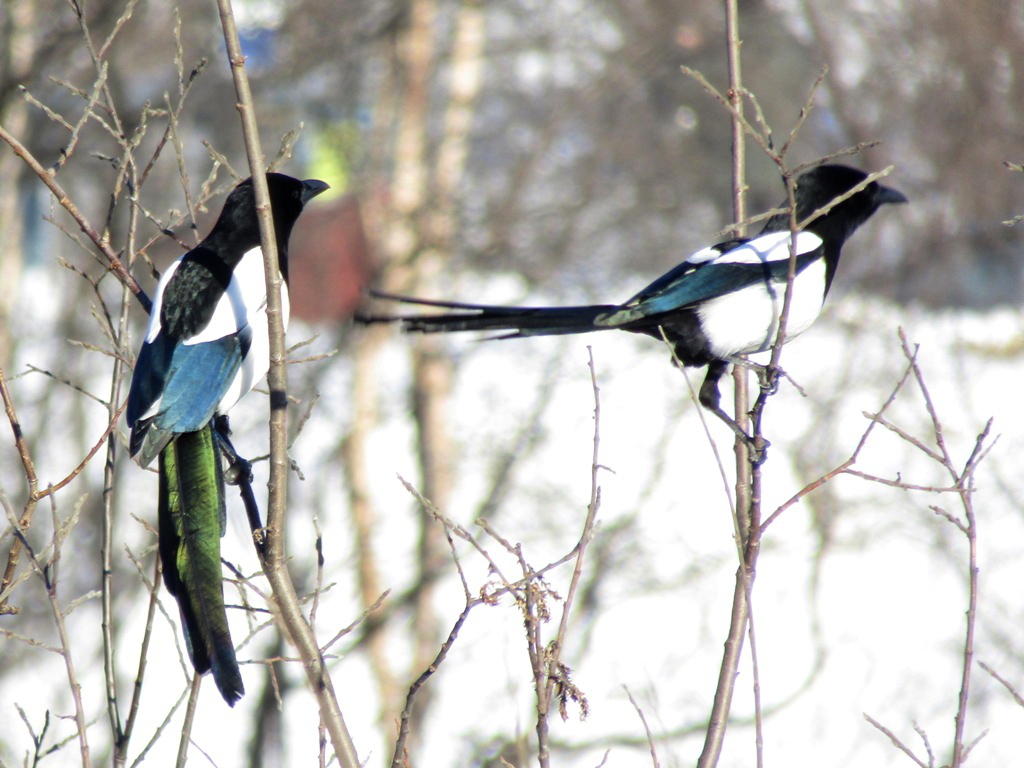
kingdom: Animalia
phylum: Chordata
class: Aves
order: Passeriformes
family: Corvidae
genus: Pica
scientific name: Pica pica
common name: Eurasian magpie
